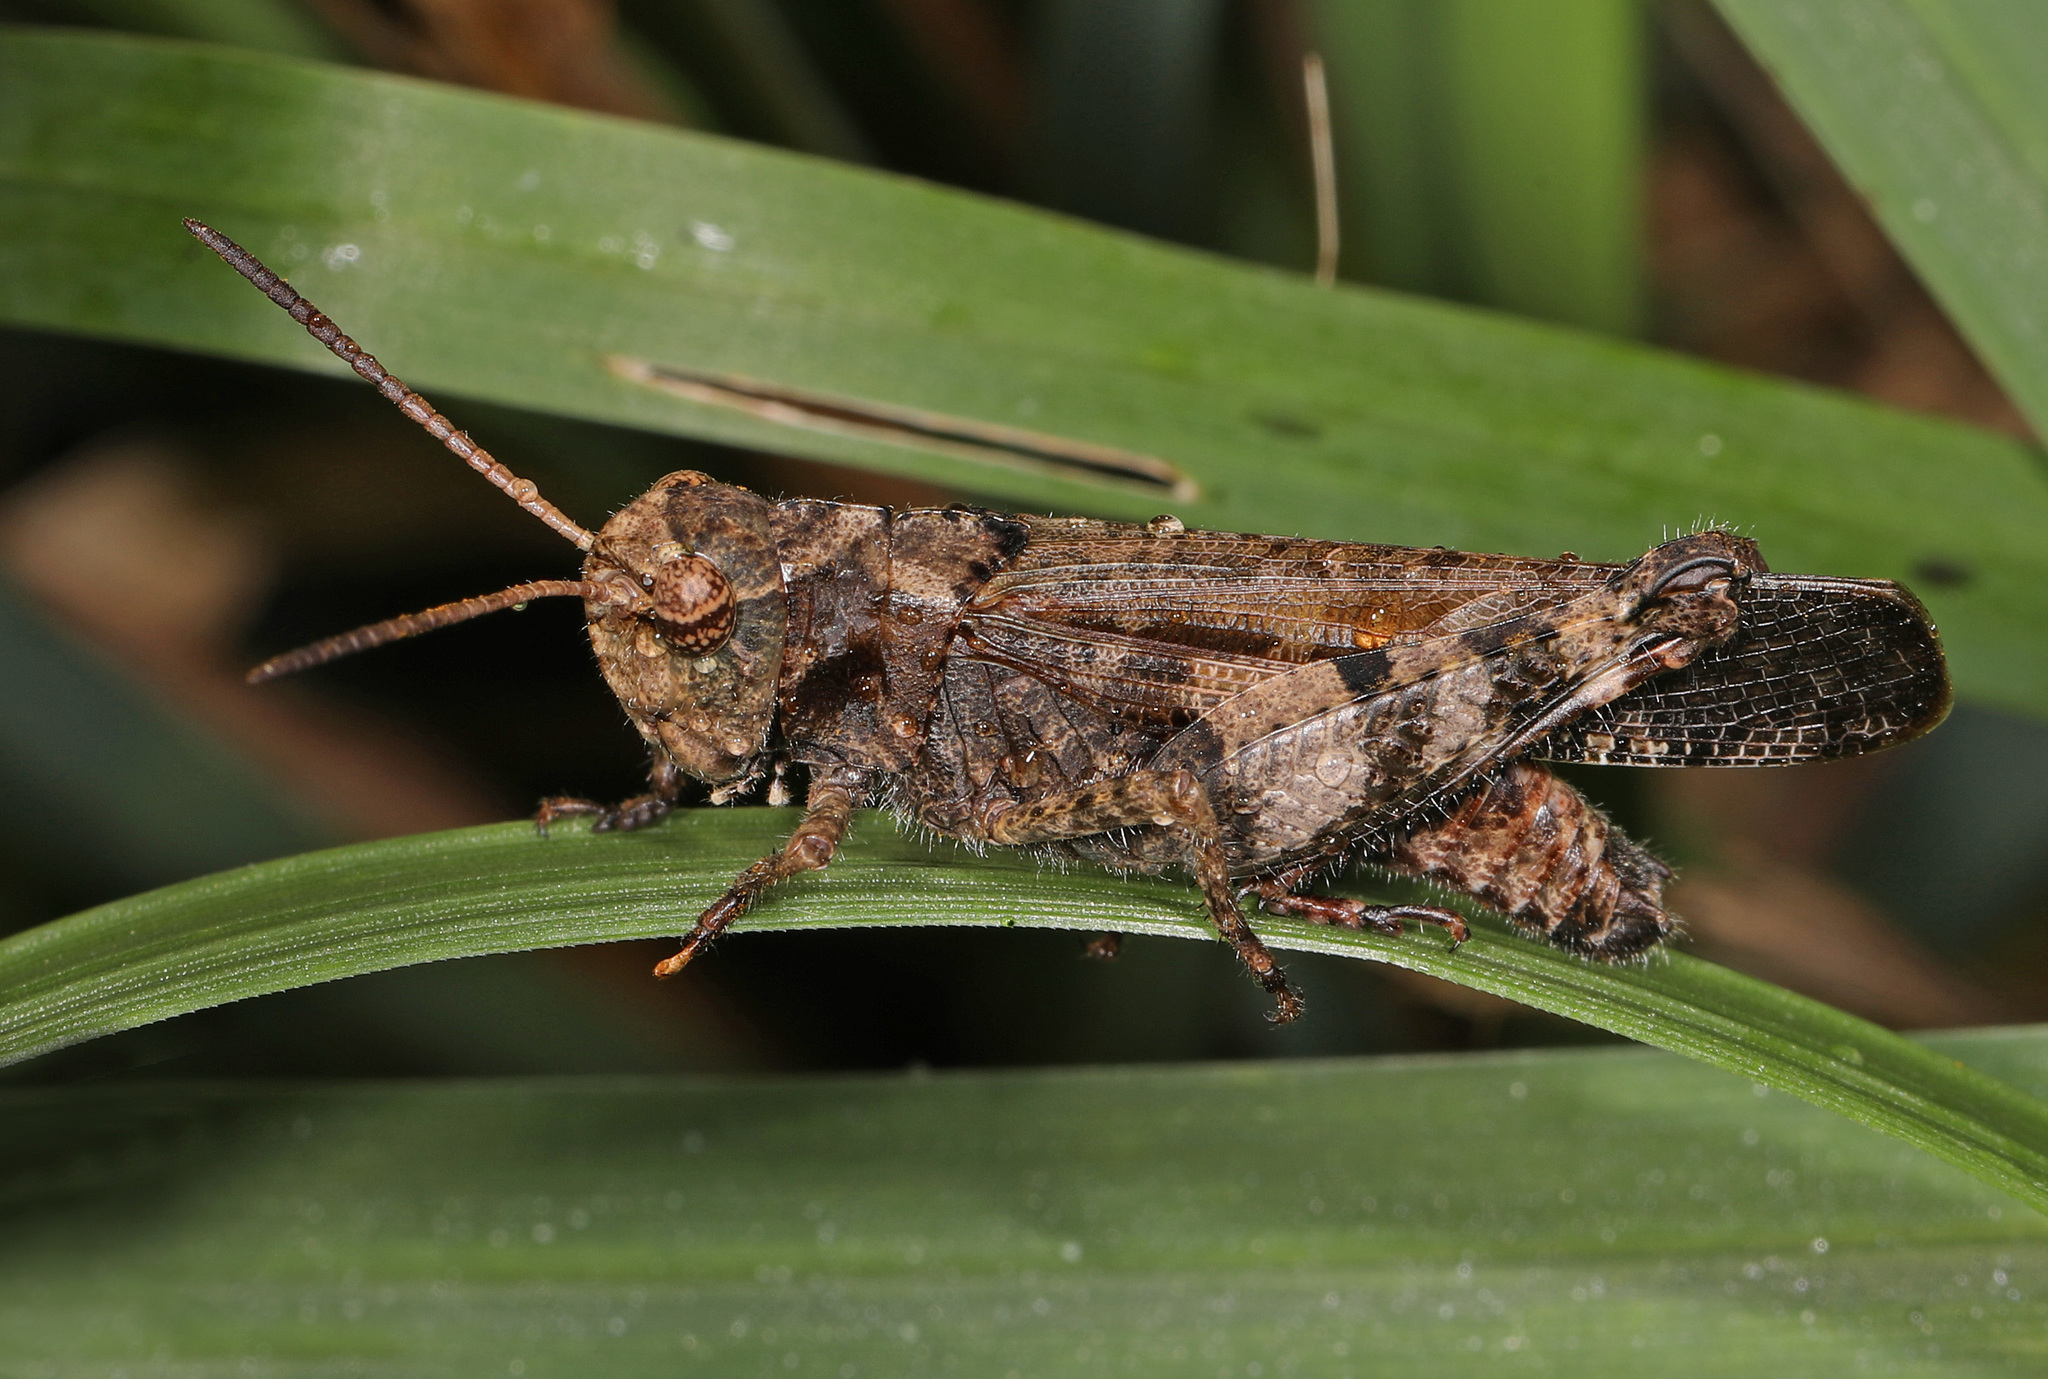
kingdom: Animalia
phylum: Arthropoda
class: Insecta
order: Orthoptera
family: Acrididae
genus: Encoptolophus
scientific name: Encoptolophus sordidus
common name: Dusky grasshopper
